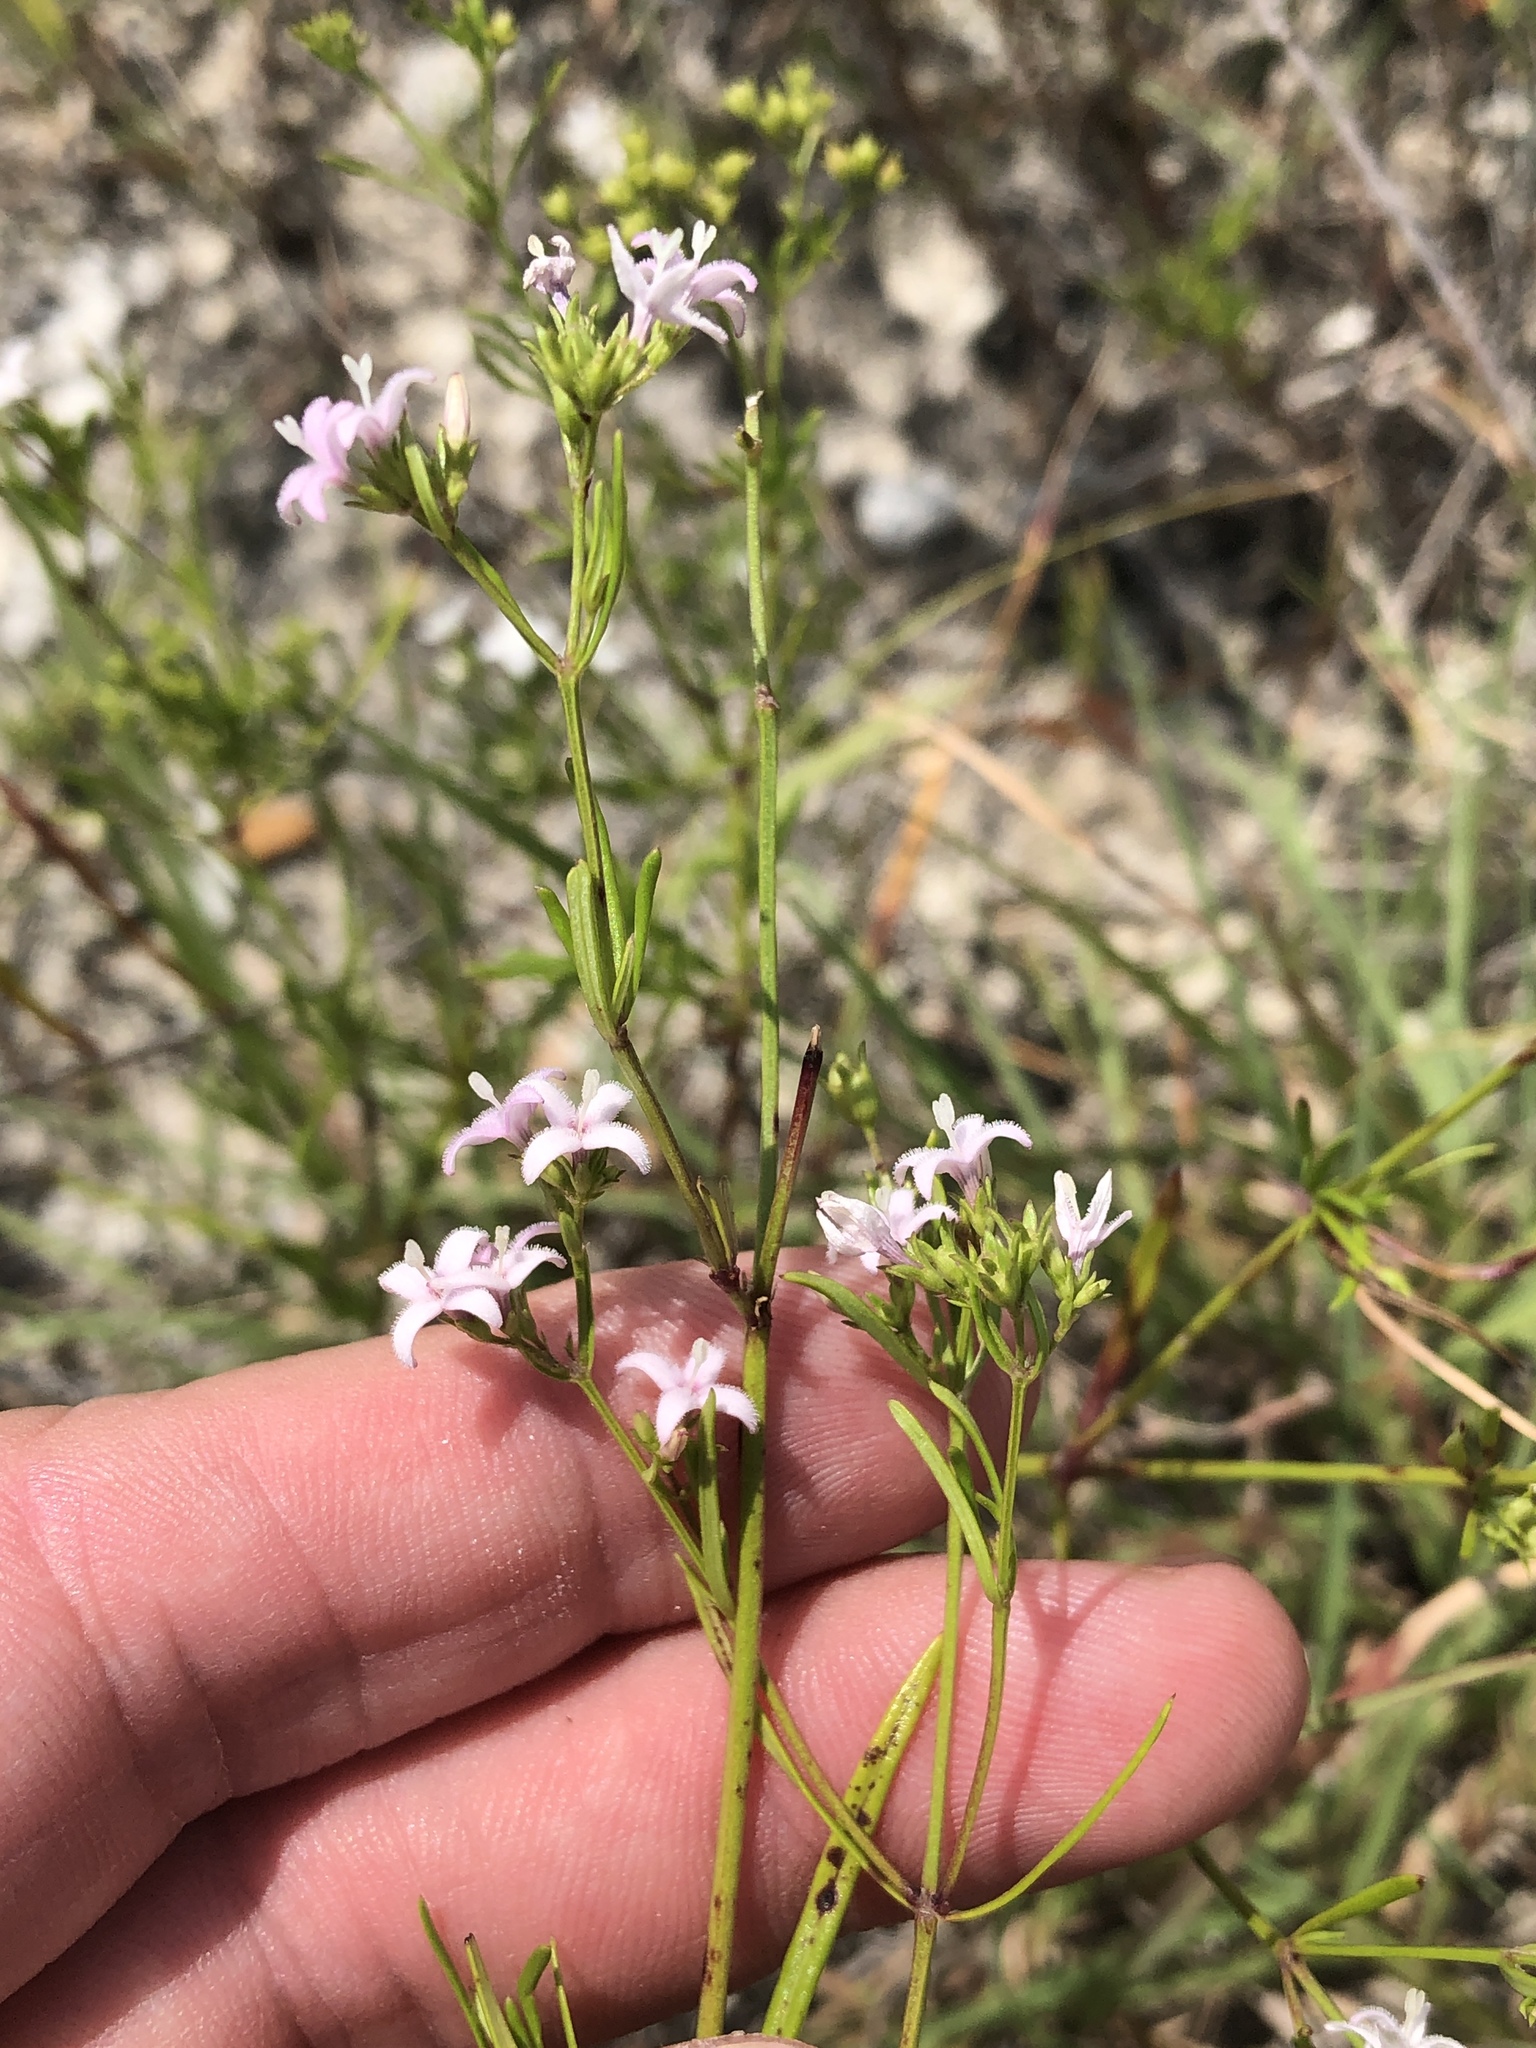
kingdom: Plantae
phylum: Tracheophyta
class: Magnoliopsida
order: Gentianales
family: Rubiaceae
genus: Stenaria
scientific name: Stenaria nigricans
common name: Diamondflowers
